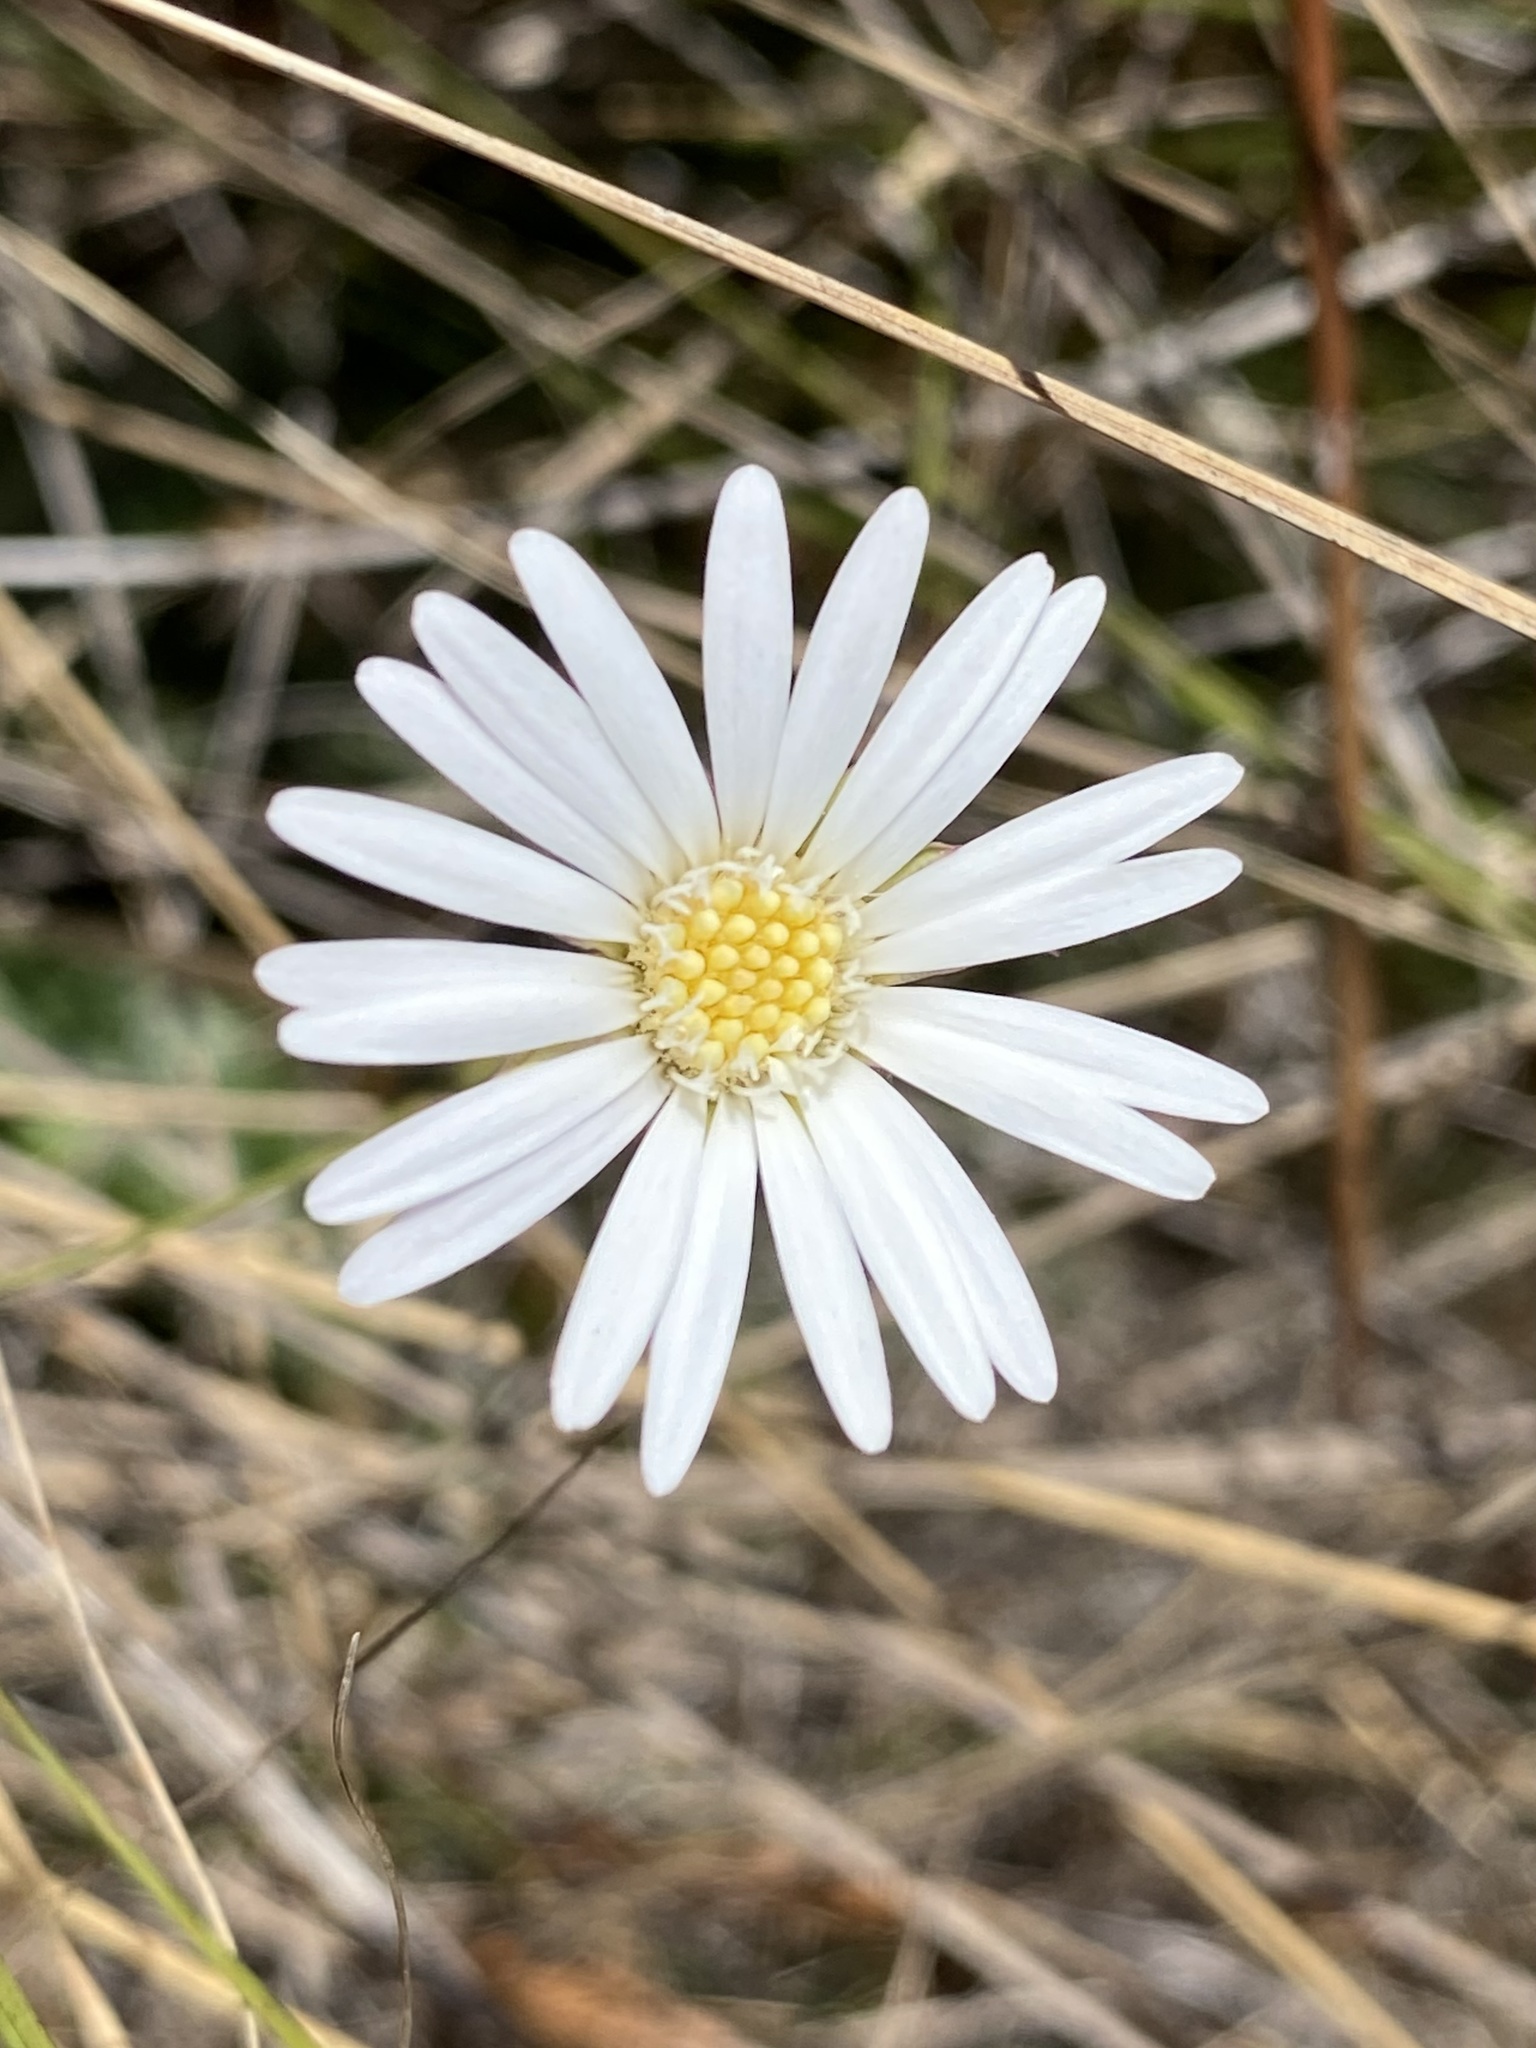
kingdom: Plantae
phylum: Tracheophyta
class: Magnoliopsida
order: Asterales
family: Asteraceae
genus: Chaptalia
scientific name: Chaptalia tomentosa
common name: Woolly sunbonnet
